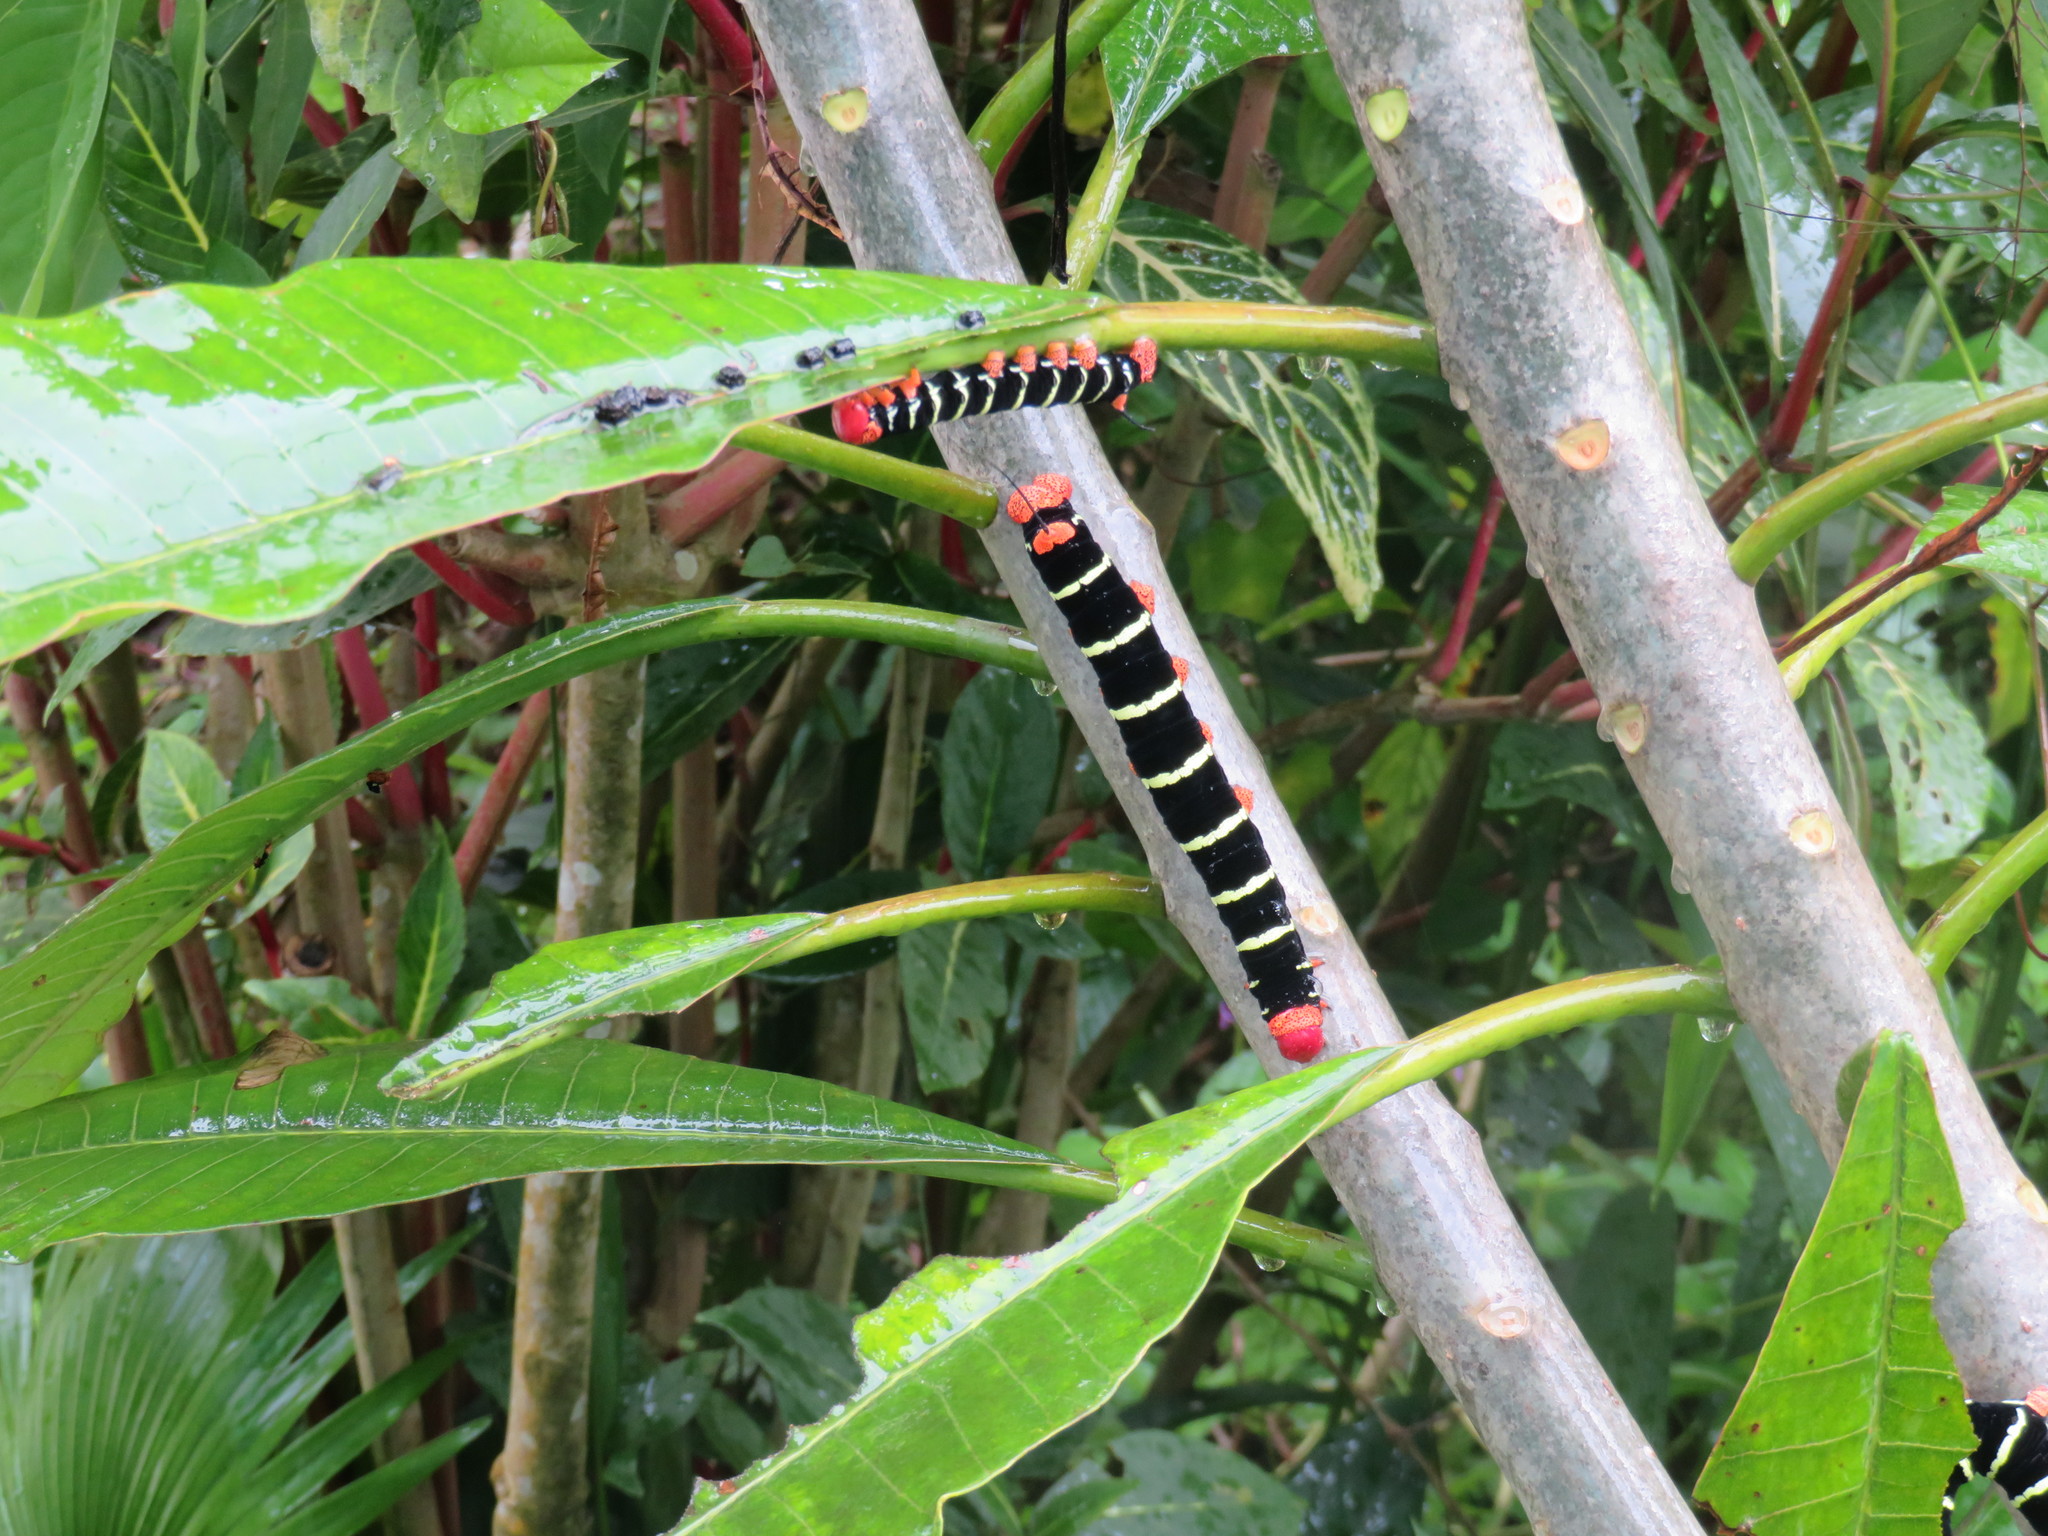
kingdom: Animalia
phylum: Arthropoda
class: Insecta
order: Lepidoptera
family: Sphingidae
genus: Pseudosphinx
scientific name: Pseudosphinx tetrio
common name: Tetrio sphinx
